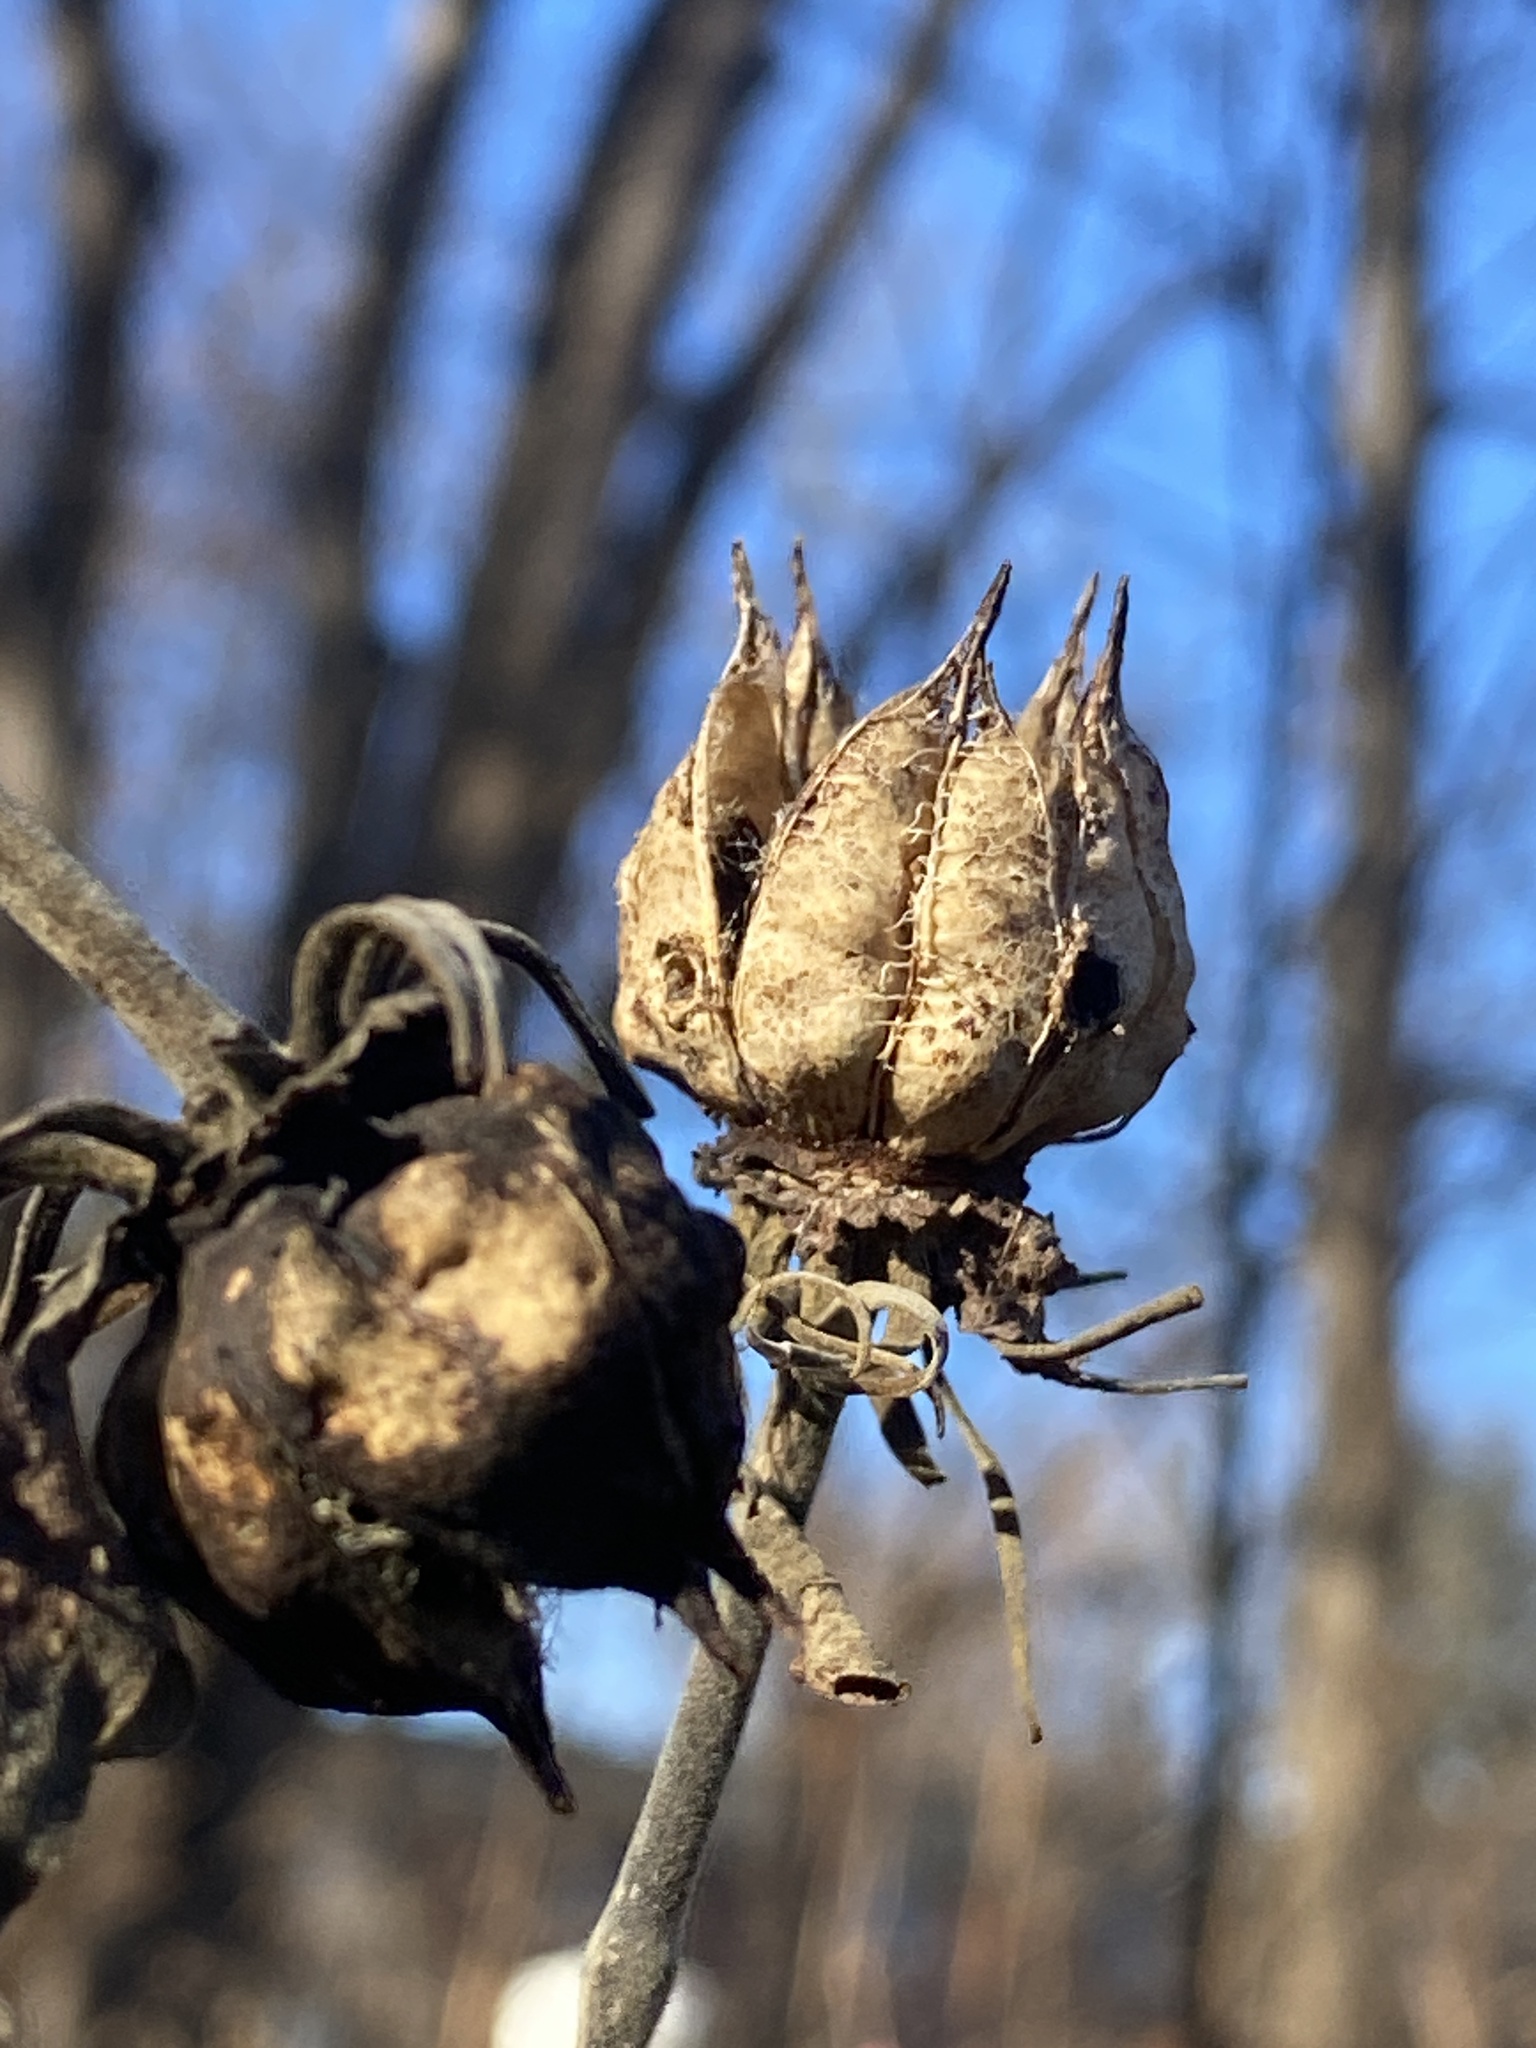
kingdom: Plantae
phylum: Tracheophyta
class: Magnoliopsida
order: Malvales
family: Malvaceae
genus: Hibiscus
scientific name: Hibiscus moscheutos
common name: Common rose-mallow
